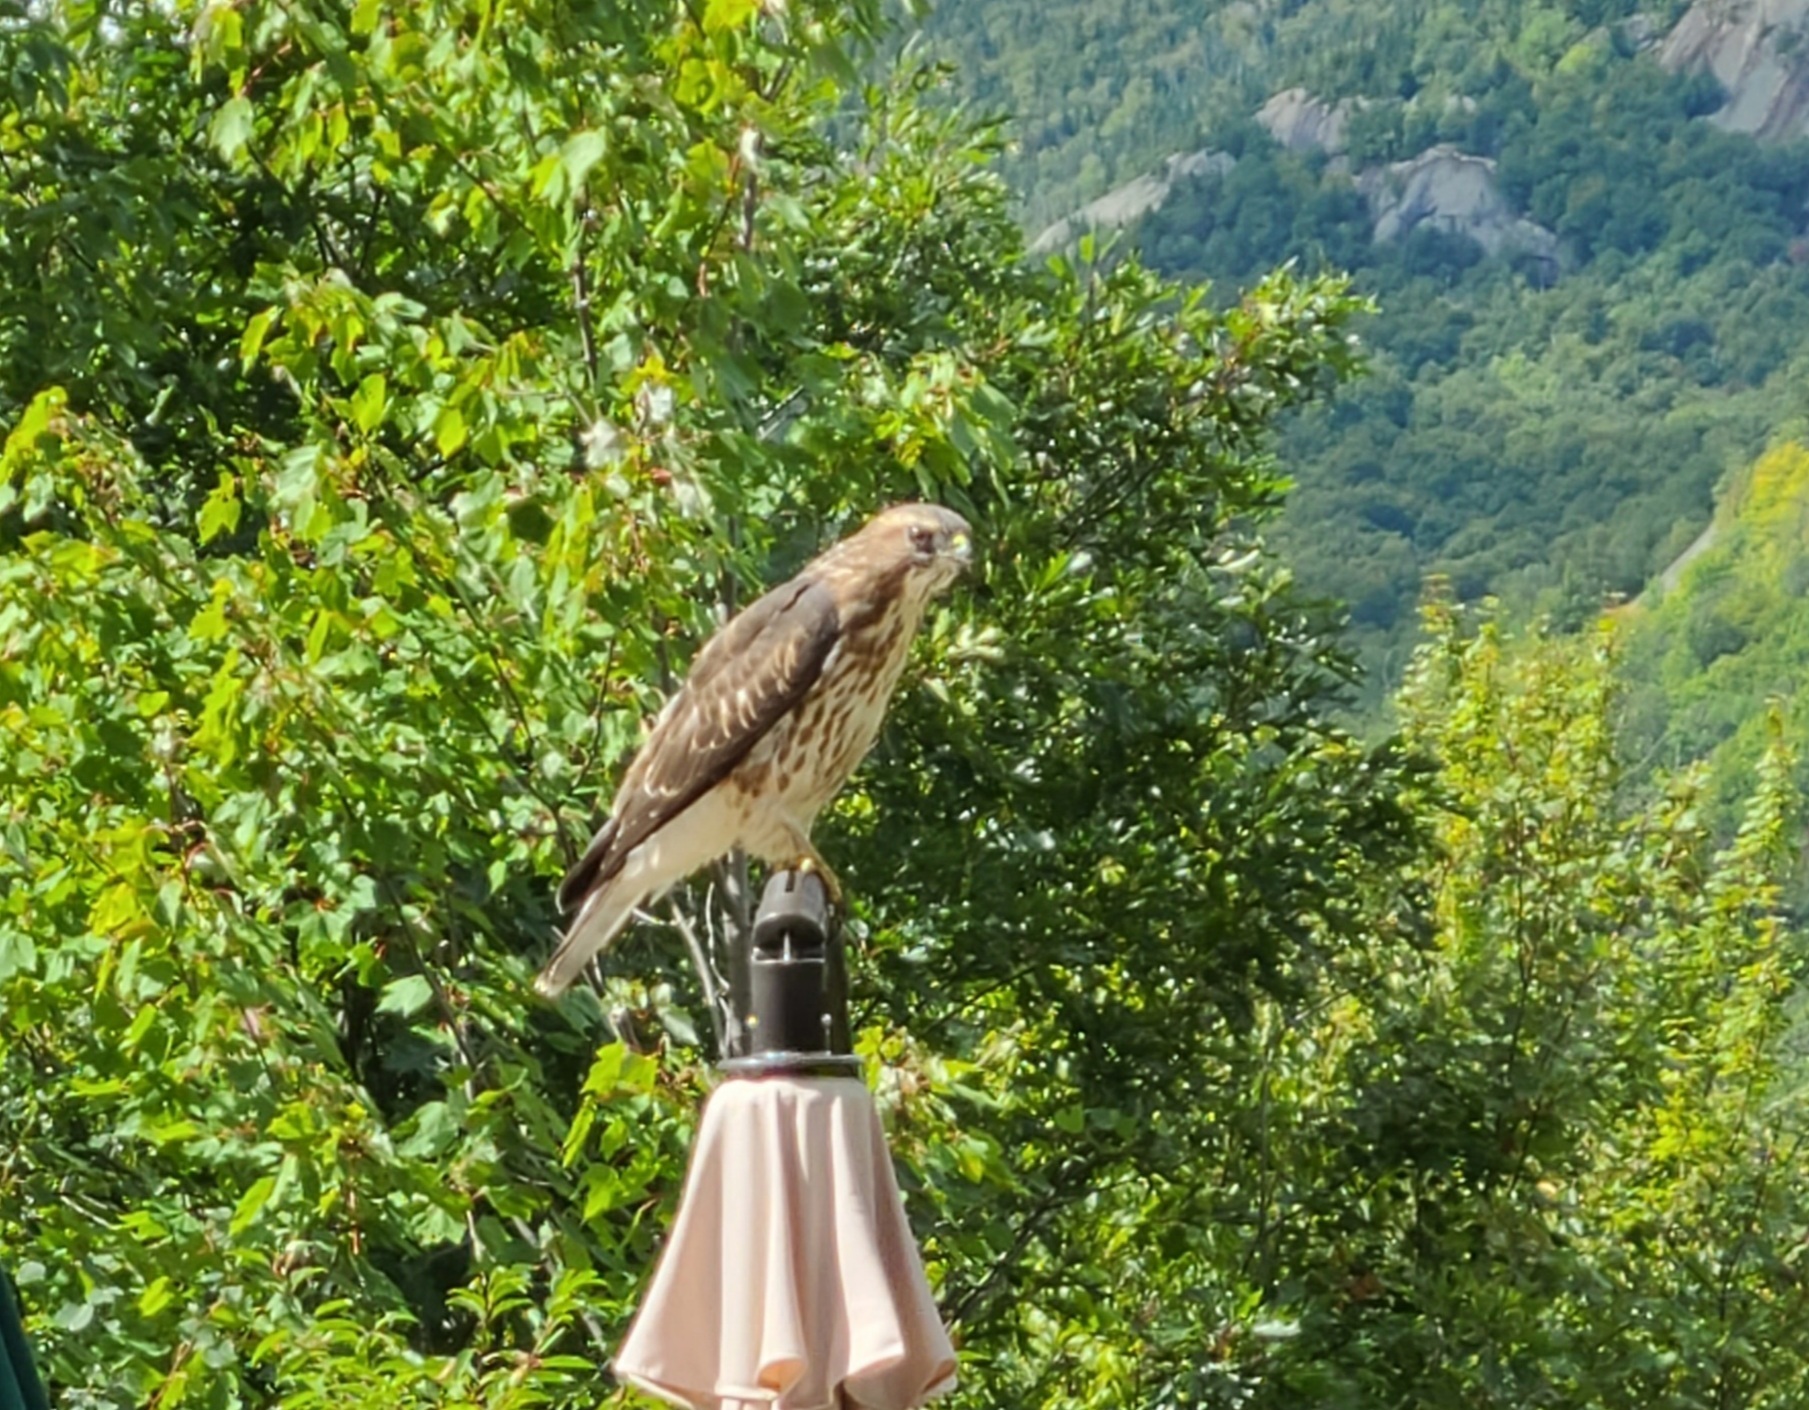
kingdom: Animalia
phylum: Chordata
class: Aves
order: Accipitriformes
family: Accipitridae
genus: Buteo
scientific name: Buteo platypterus
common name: Broad-winged hawk
